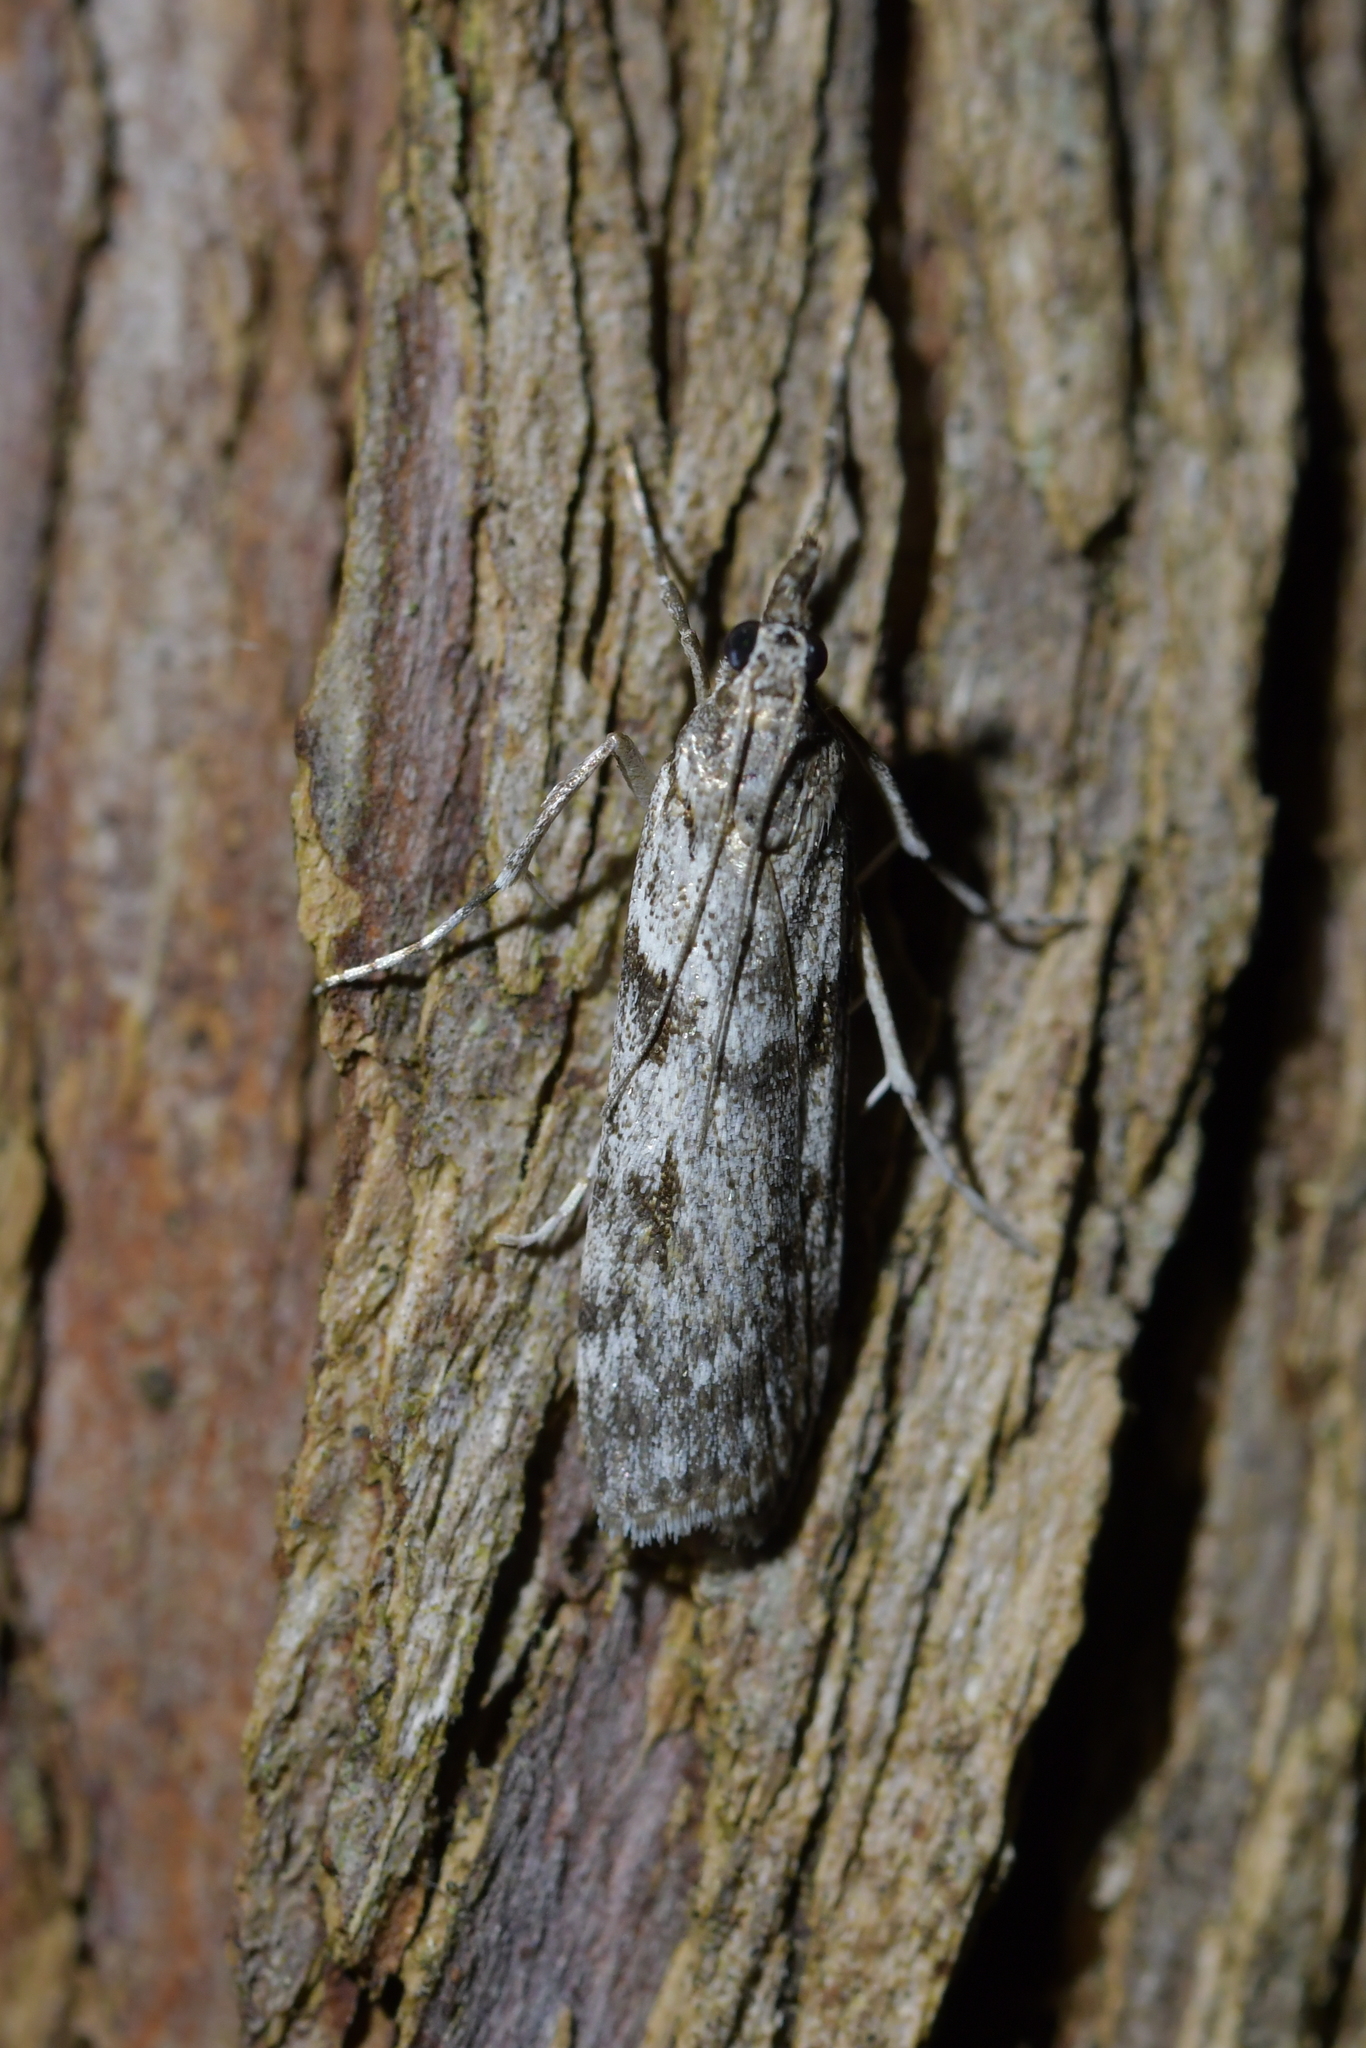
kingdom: Animalia
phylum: Arthropoda
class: Insecta
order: Lepidoptera
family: Crambidae
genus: Scoparia
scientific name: Scoparia halopis
